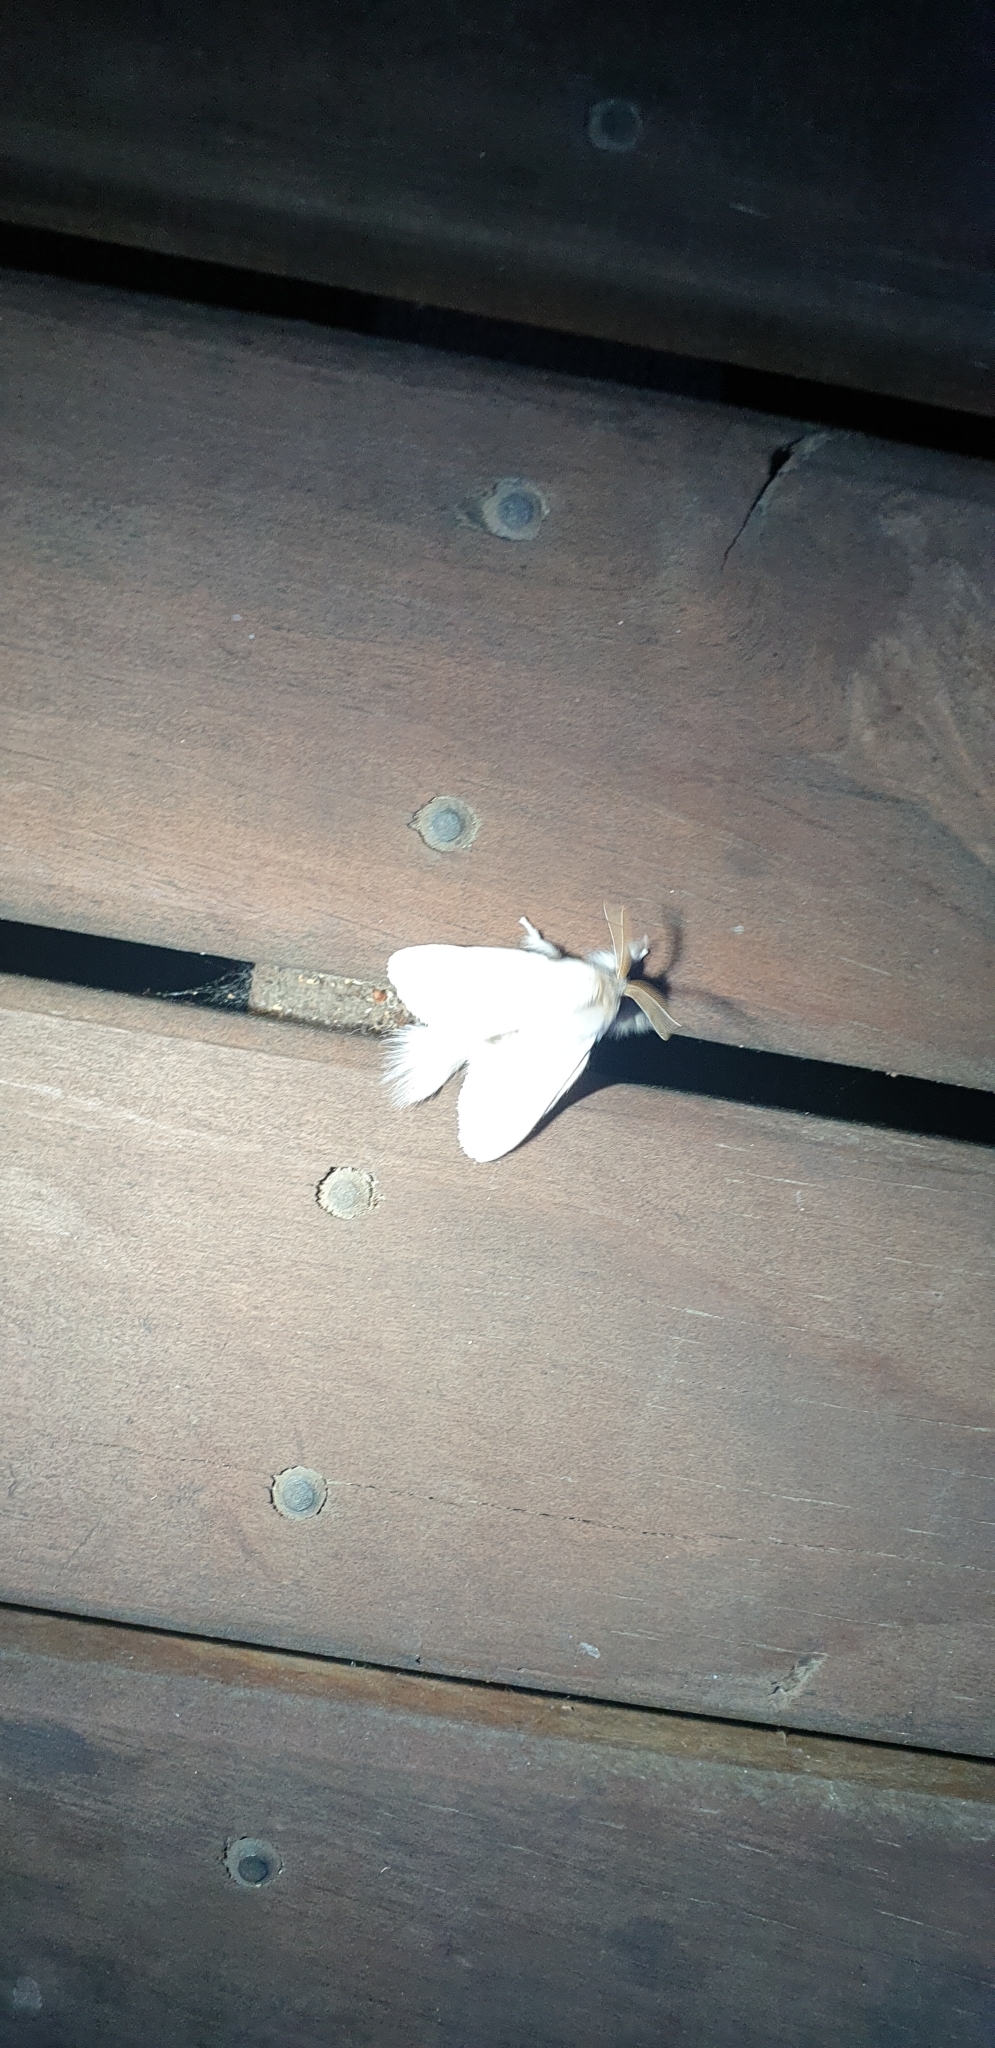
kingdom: Animalia
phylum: Arthropoda
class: Insecta
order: Lepidoptera
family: Notodontidae
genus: Trichiocercus
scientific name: Trichiocercus sparshalli
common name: Long-tailed satin
